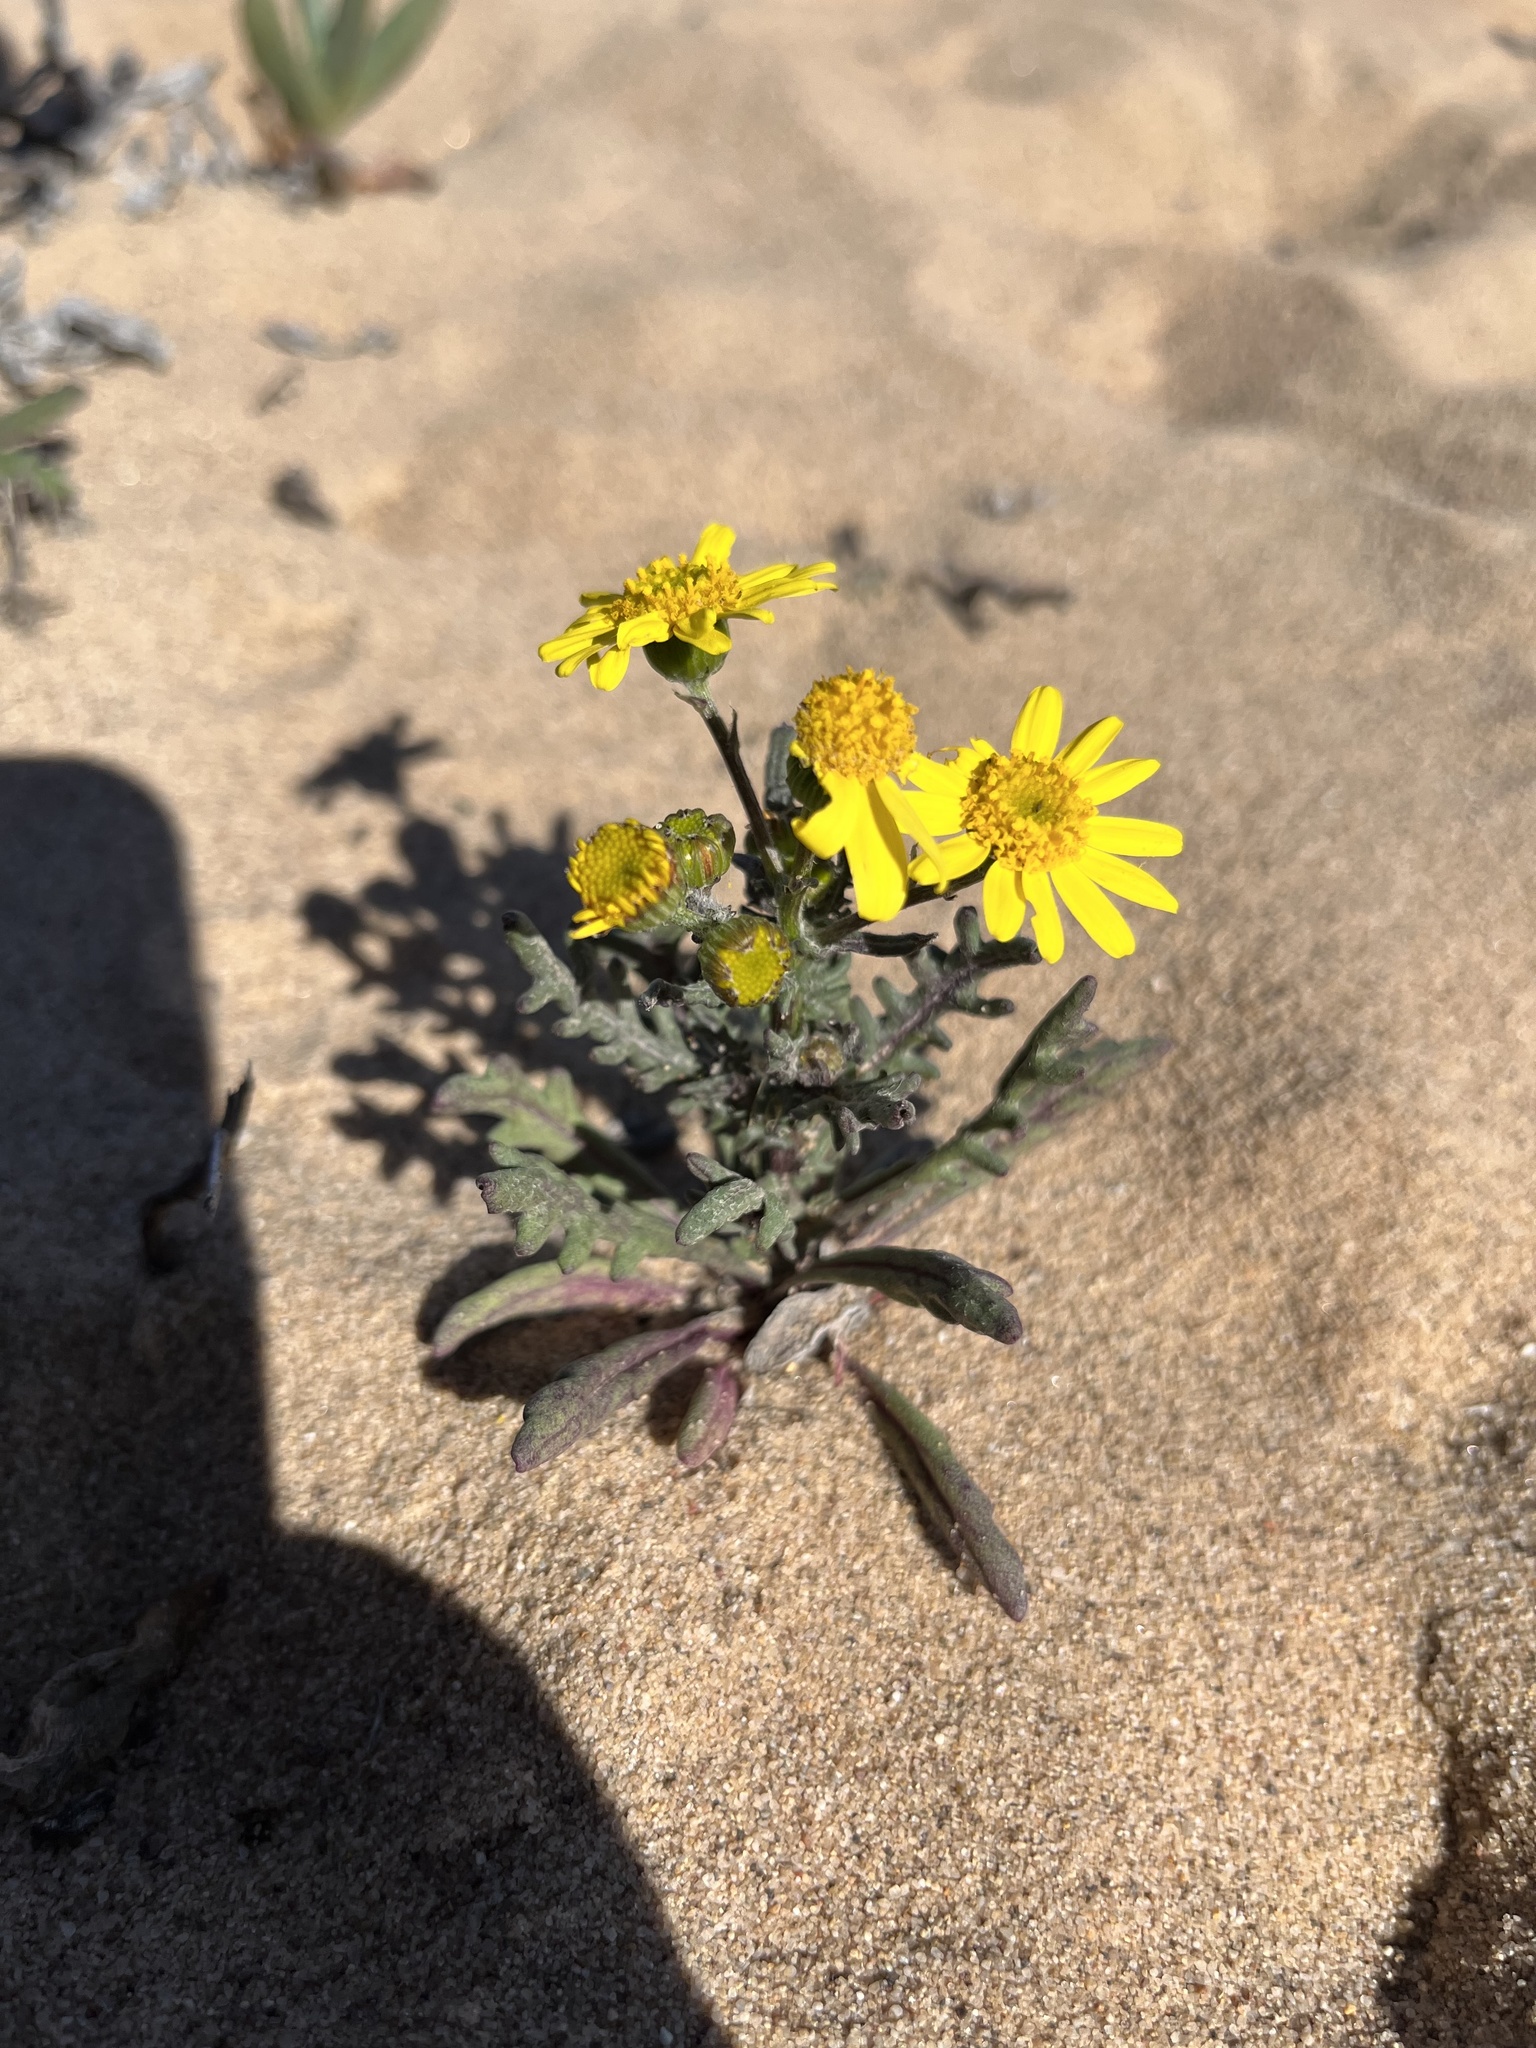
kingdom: Plantae
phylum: Tracheophyta
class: Magnoliopsida
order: Asterales
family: Asteraceae
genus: Senecio
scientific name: Senecio californicus
